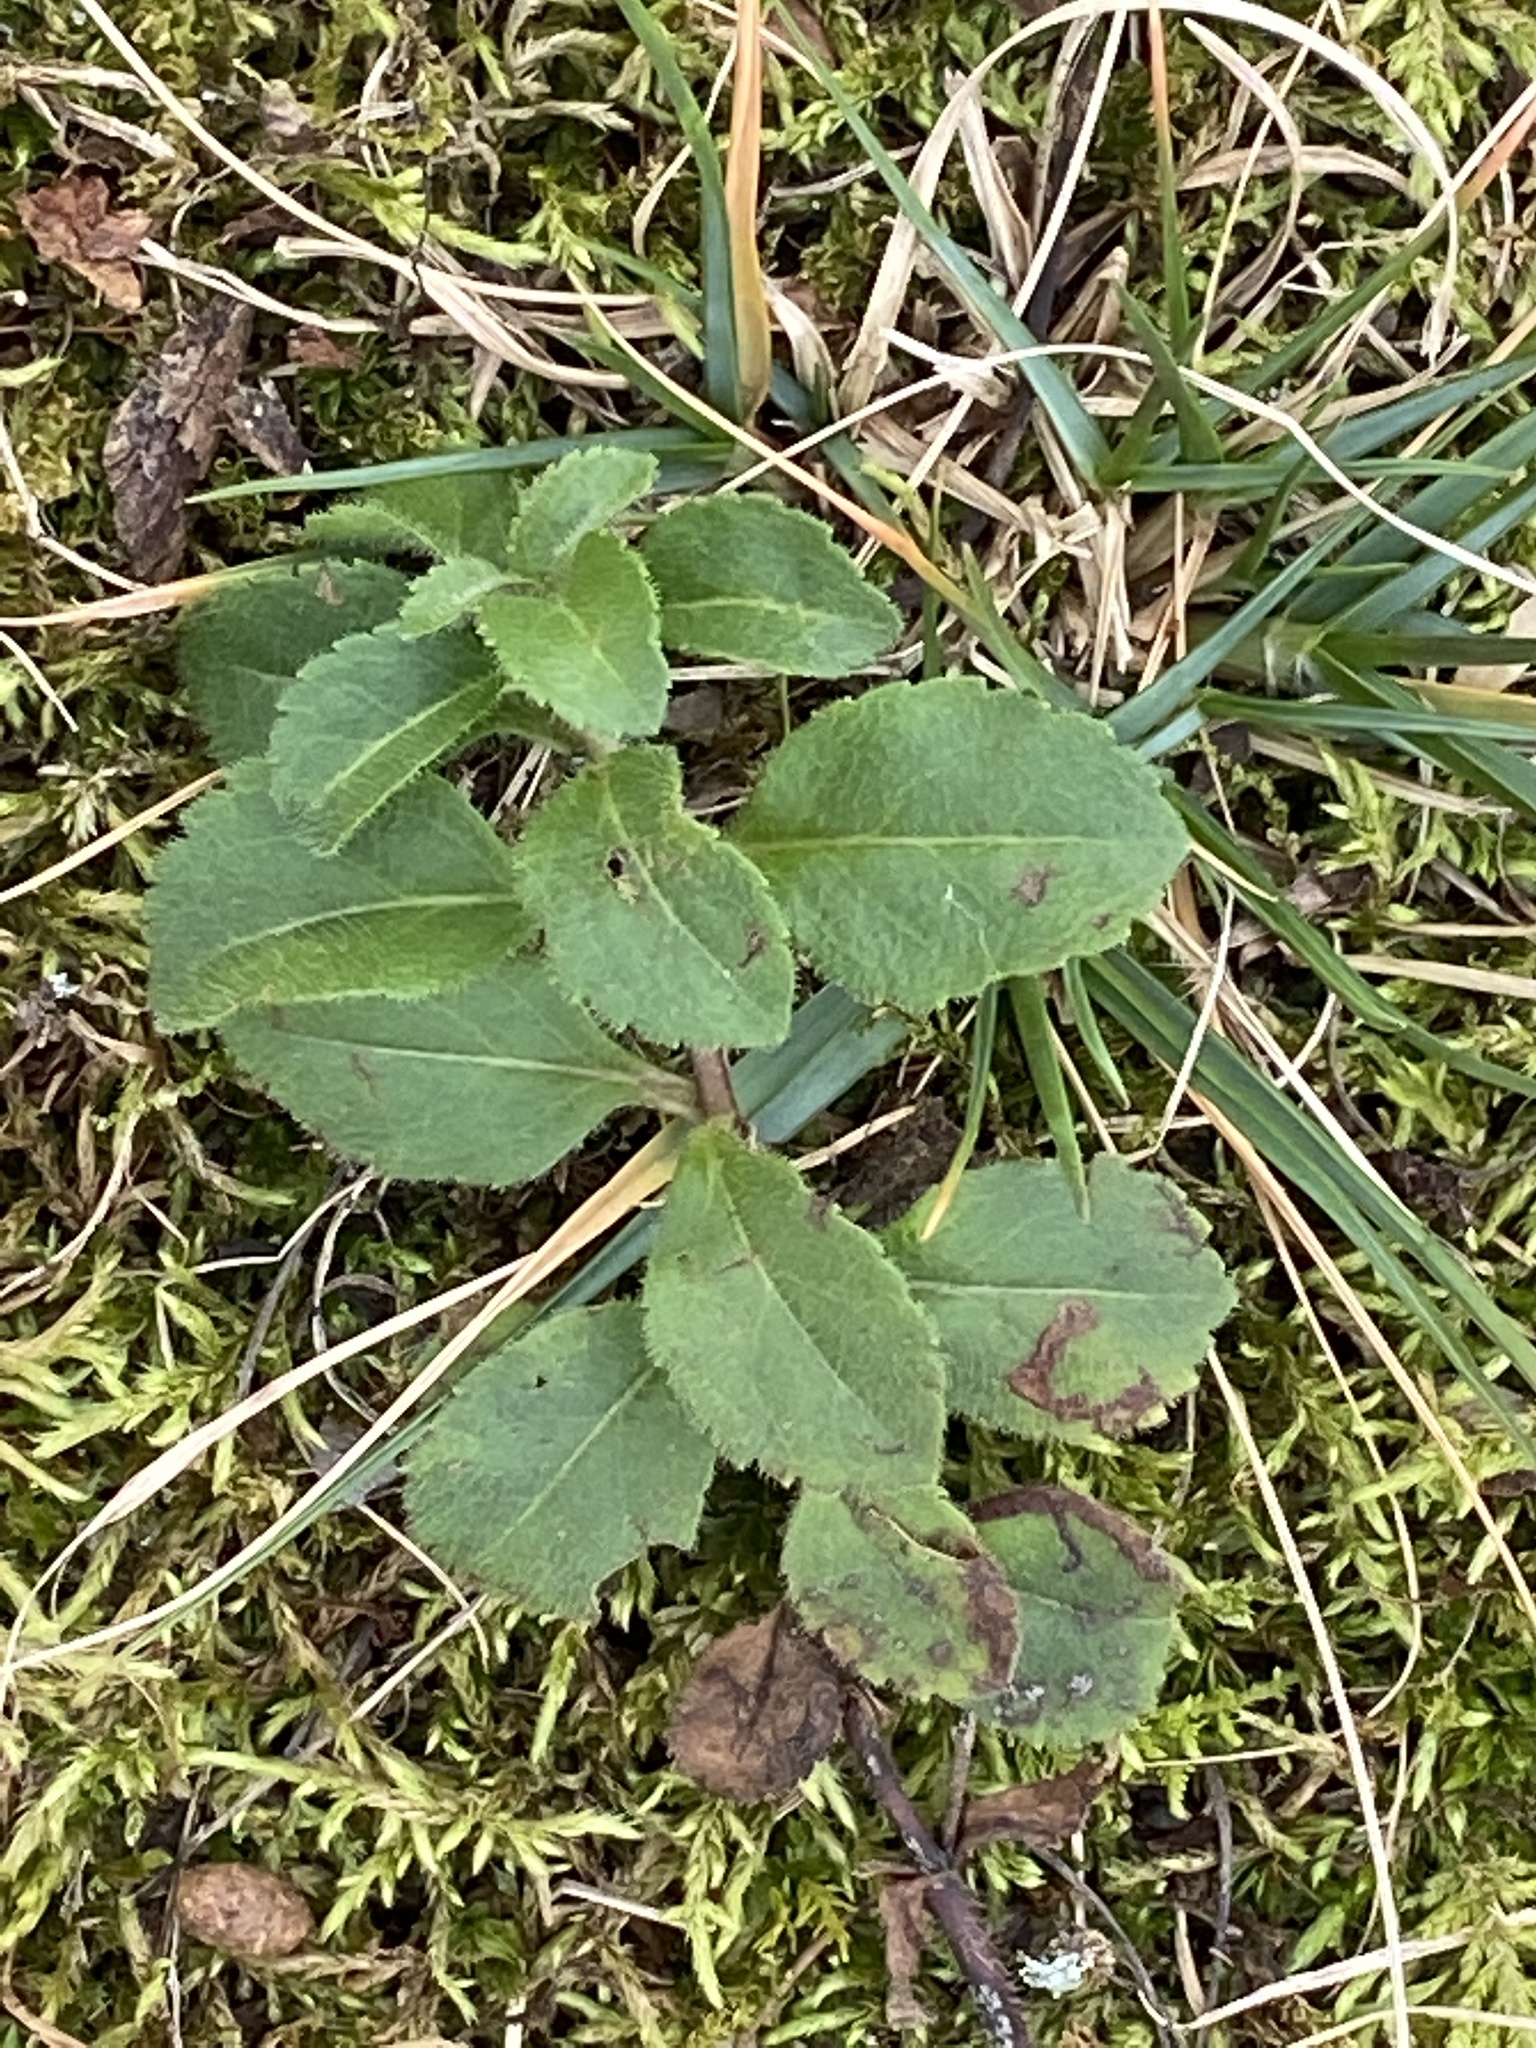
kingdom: Plantae
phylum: Tracheophyta
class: Magnoliopsida
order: Lamiales
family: Plantaginaceae
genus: Veronica
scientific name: Veronica officinalis
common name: Common speedwell
